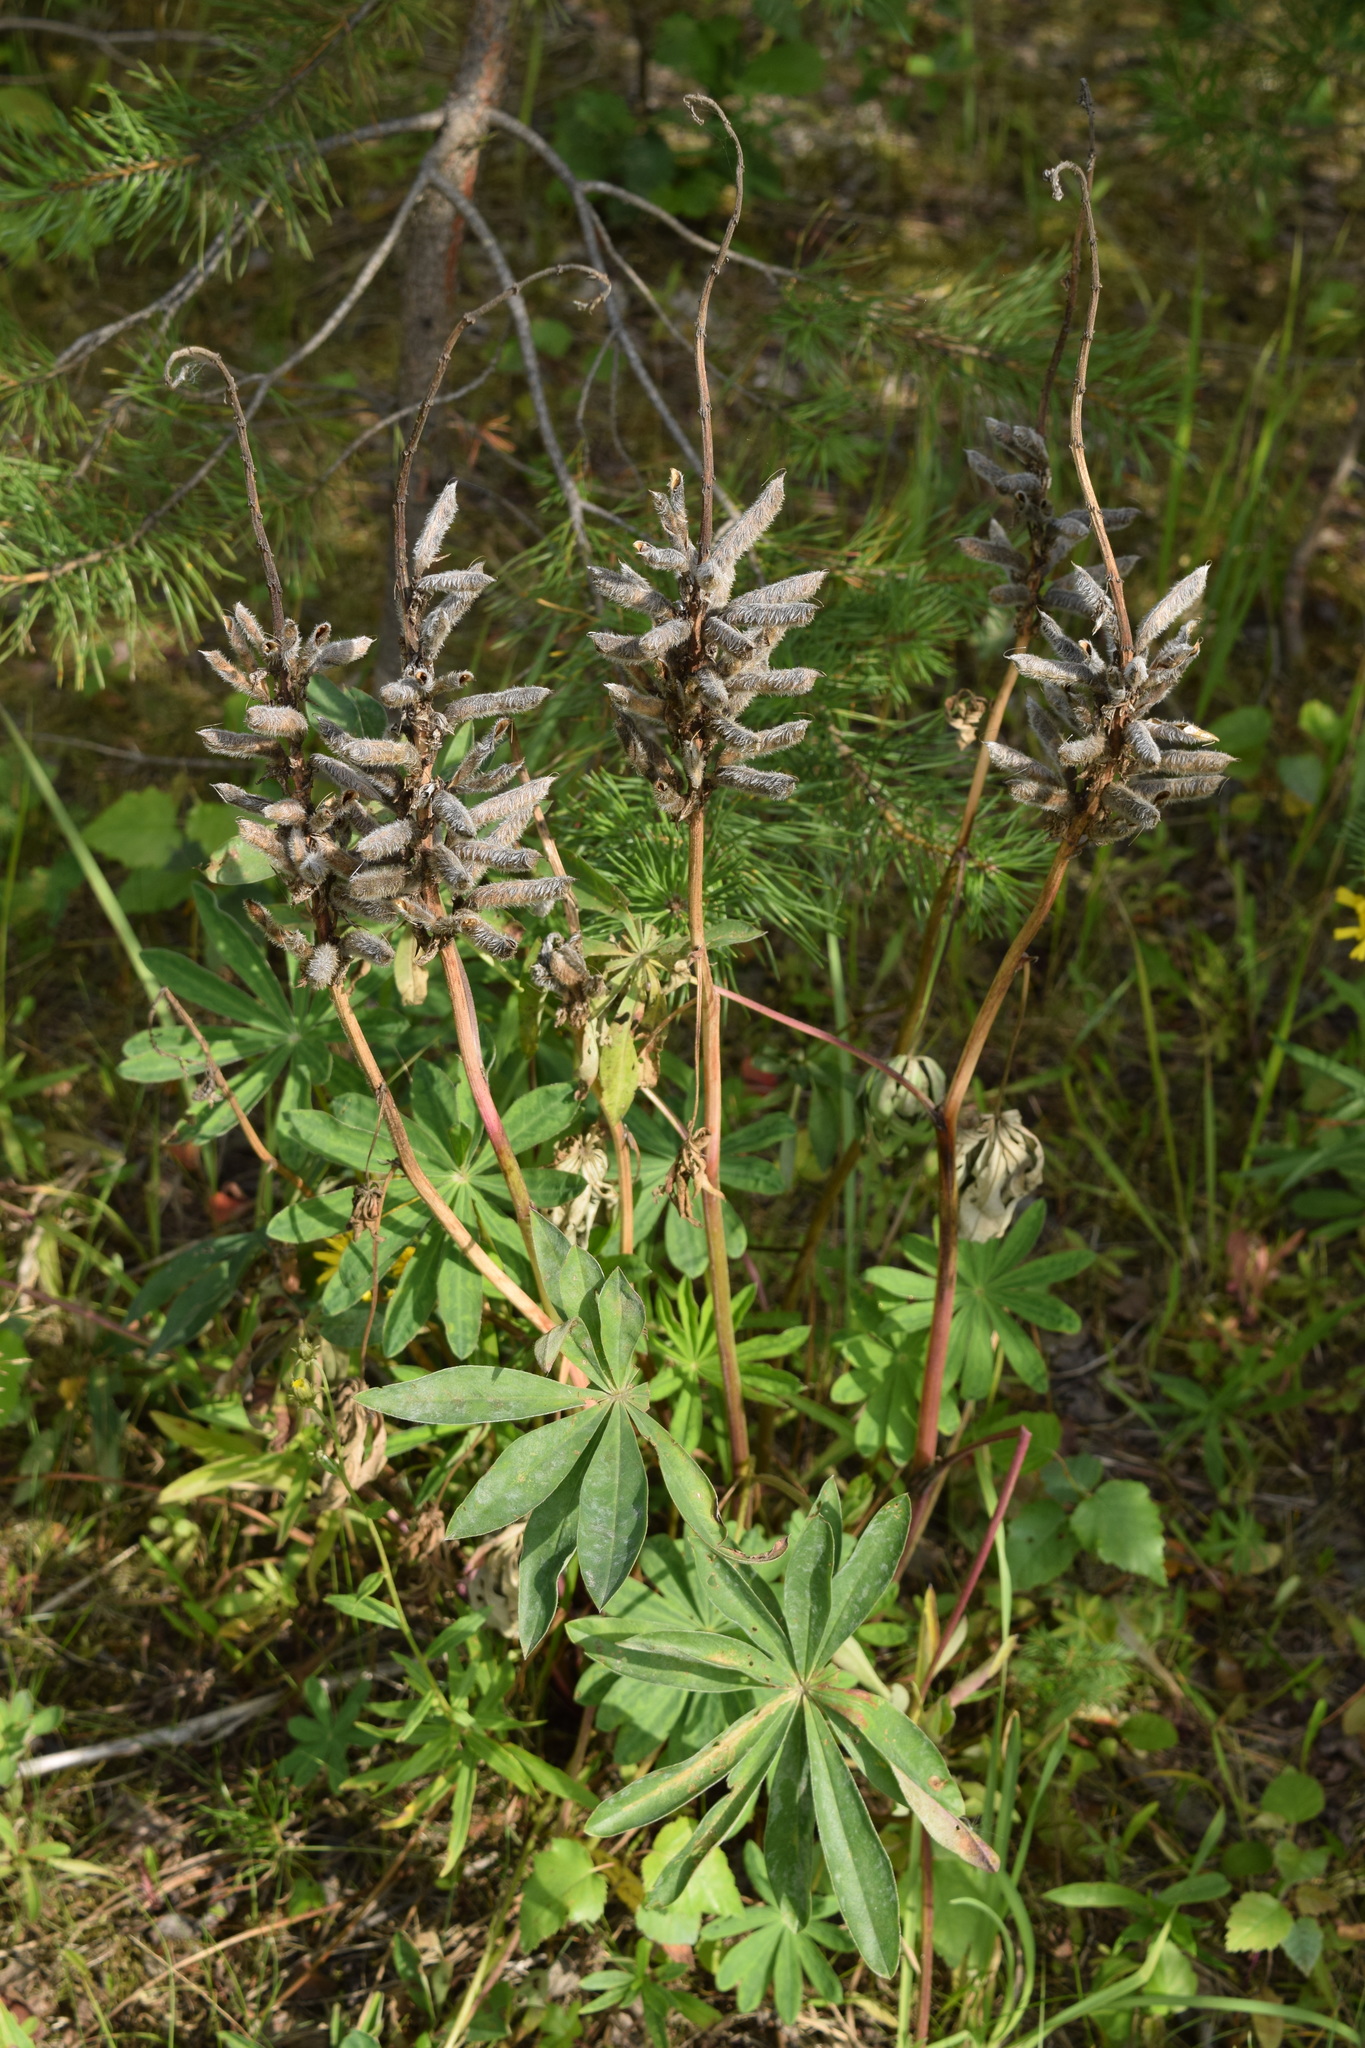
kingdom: Plantae
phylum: Tracheophyta
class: Magnoliopsida
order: Fabales
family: Fabaceae
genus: Lupinus
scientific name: Lupinus polyphyllus
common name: Garden lupin
